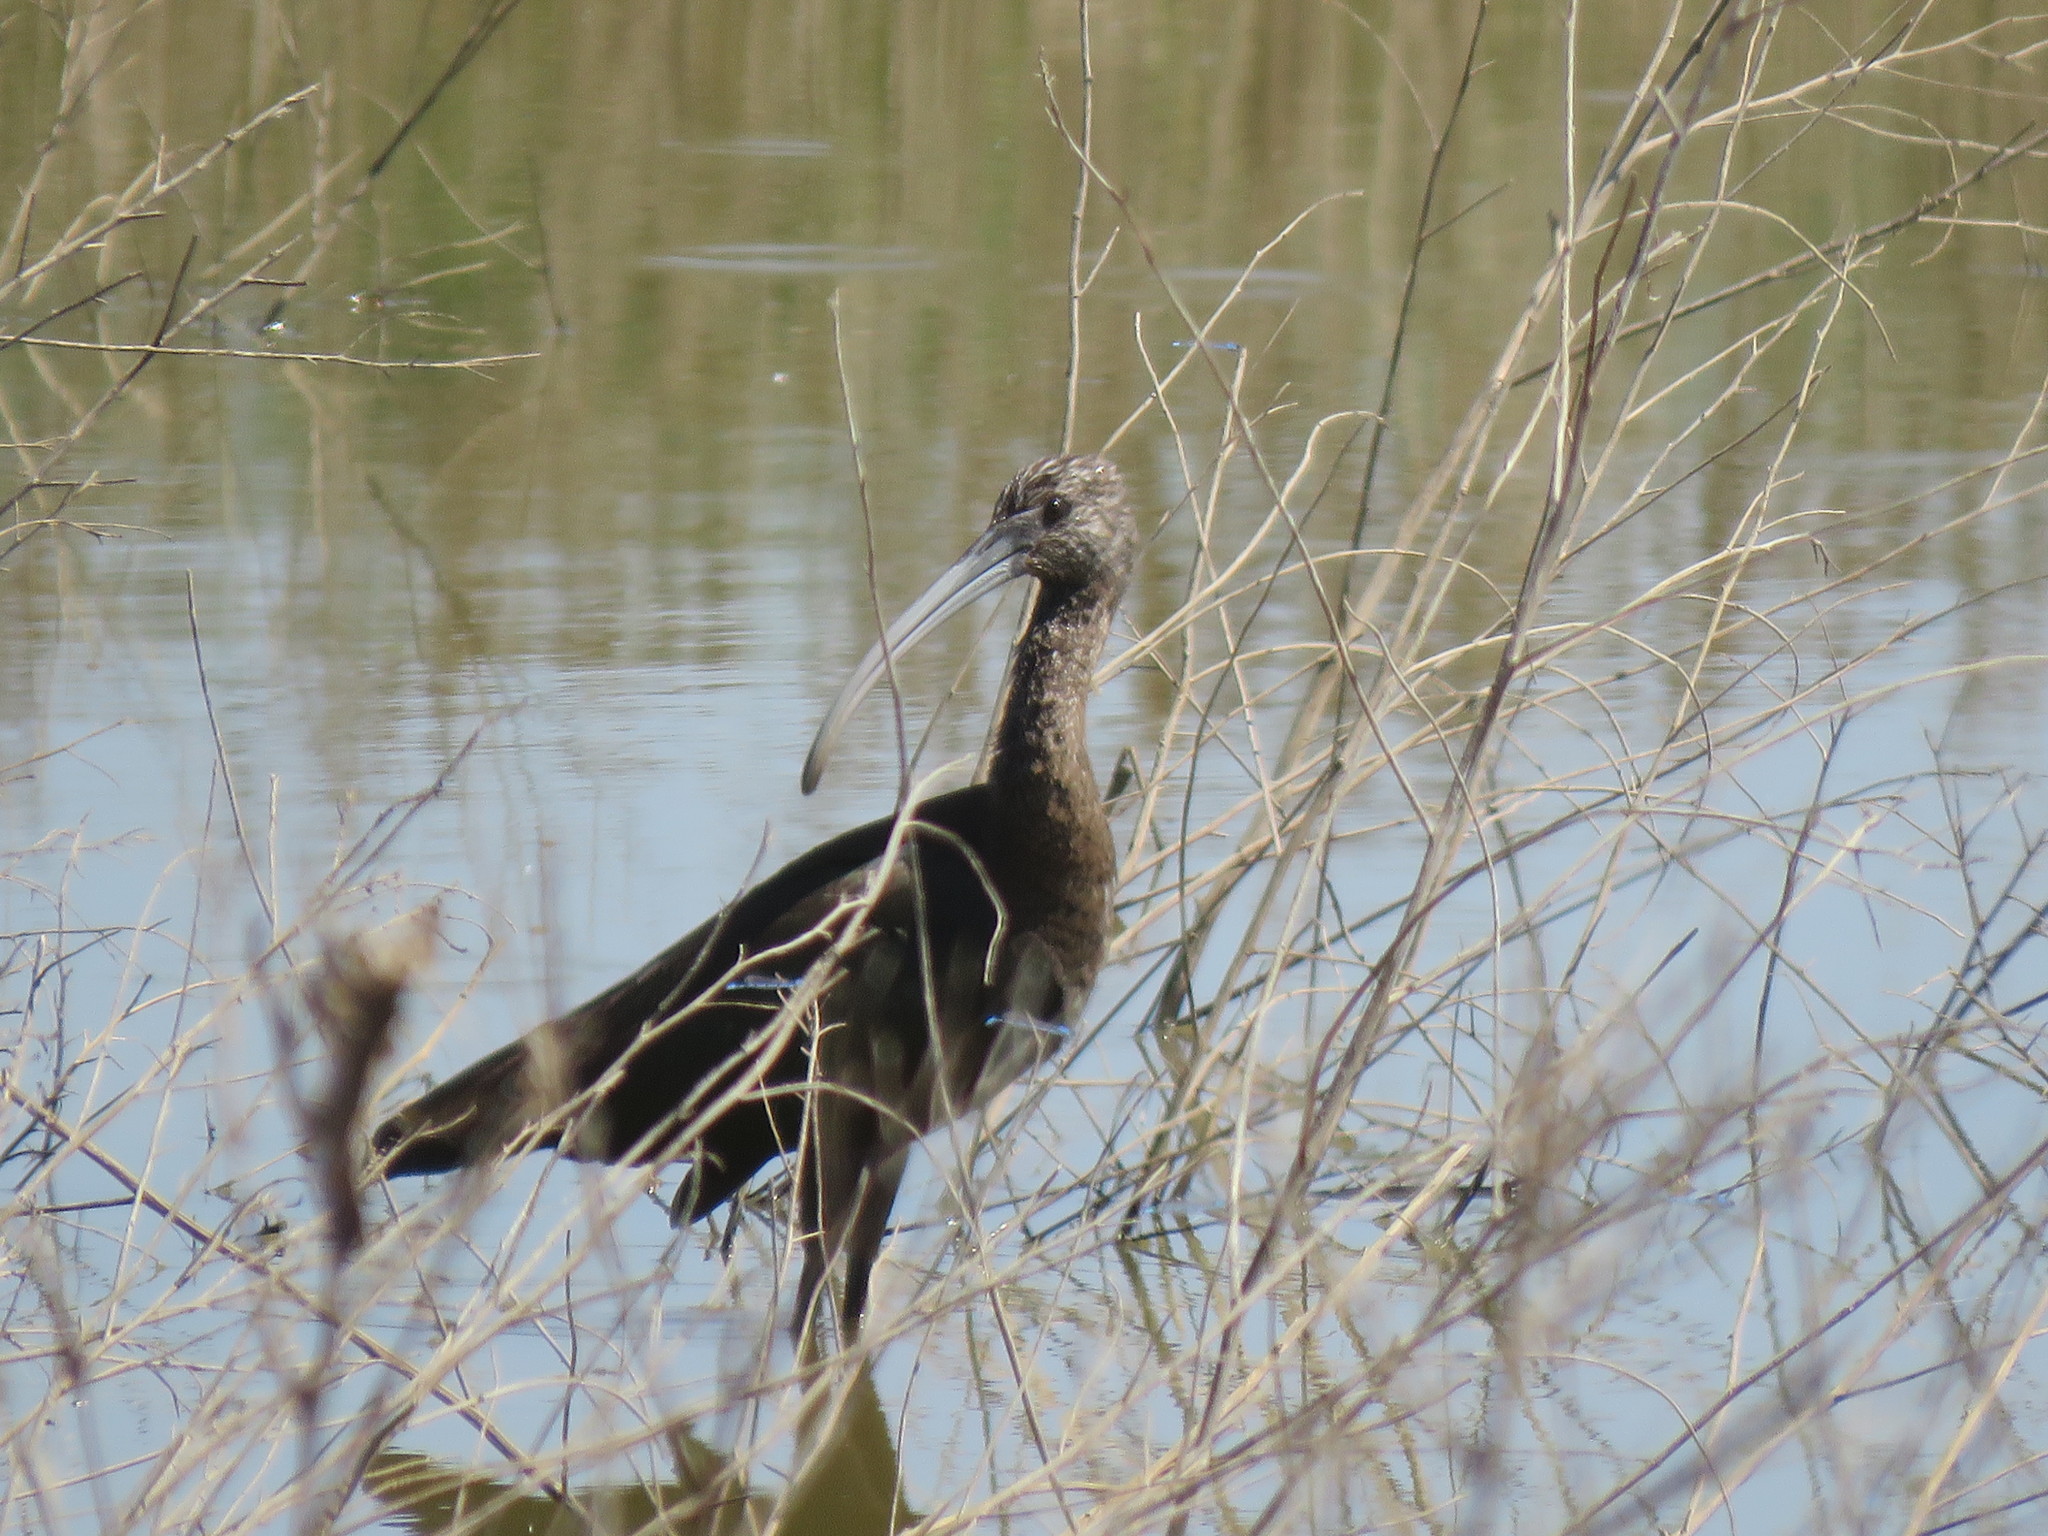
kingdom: Animalia
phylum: Chordata
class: Aves
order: Pelecaniformes
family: Threskiornithidae
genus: Plegadis
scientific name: Plegadis chihi
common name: White-faced ibis
